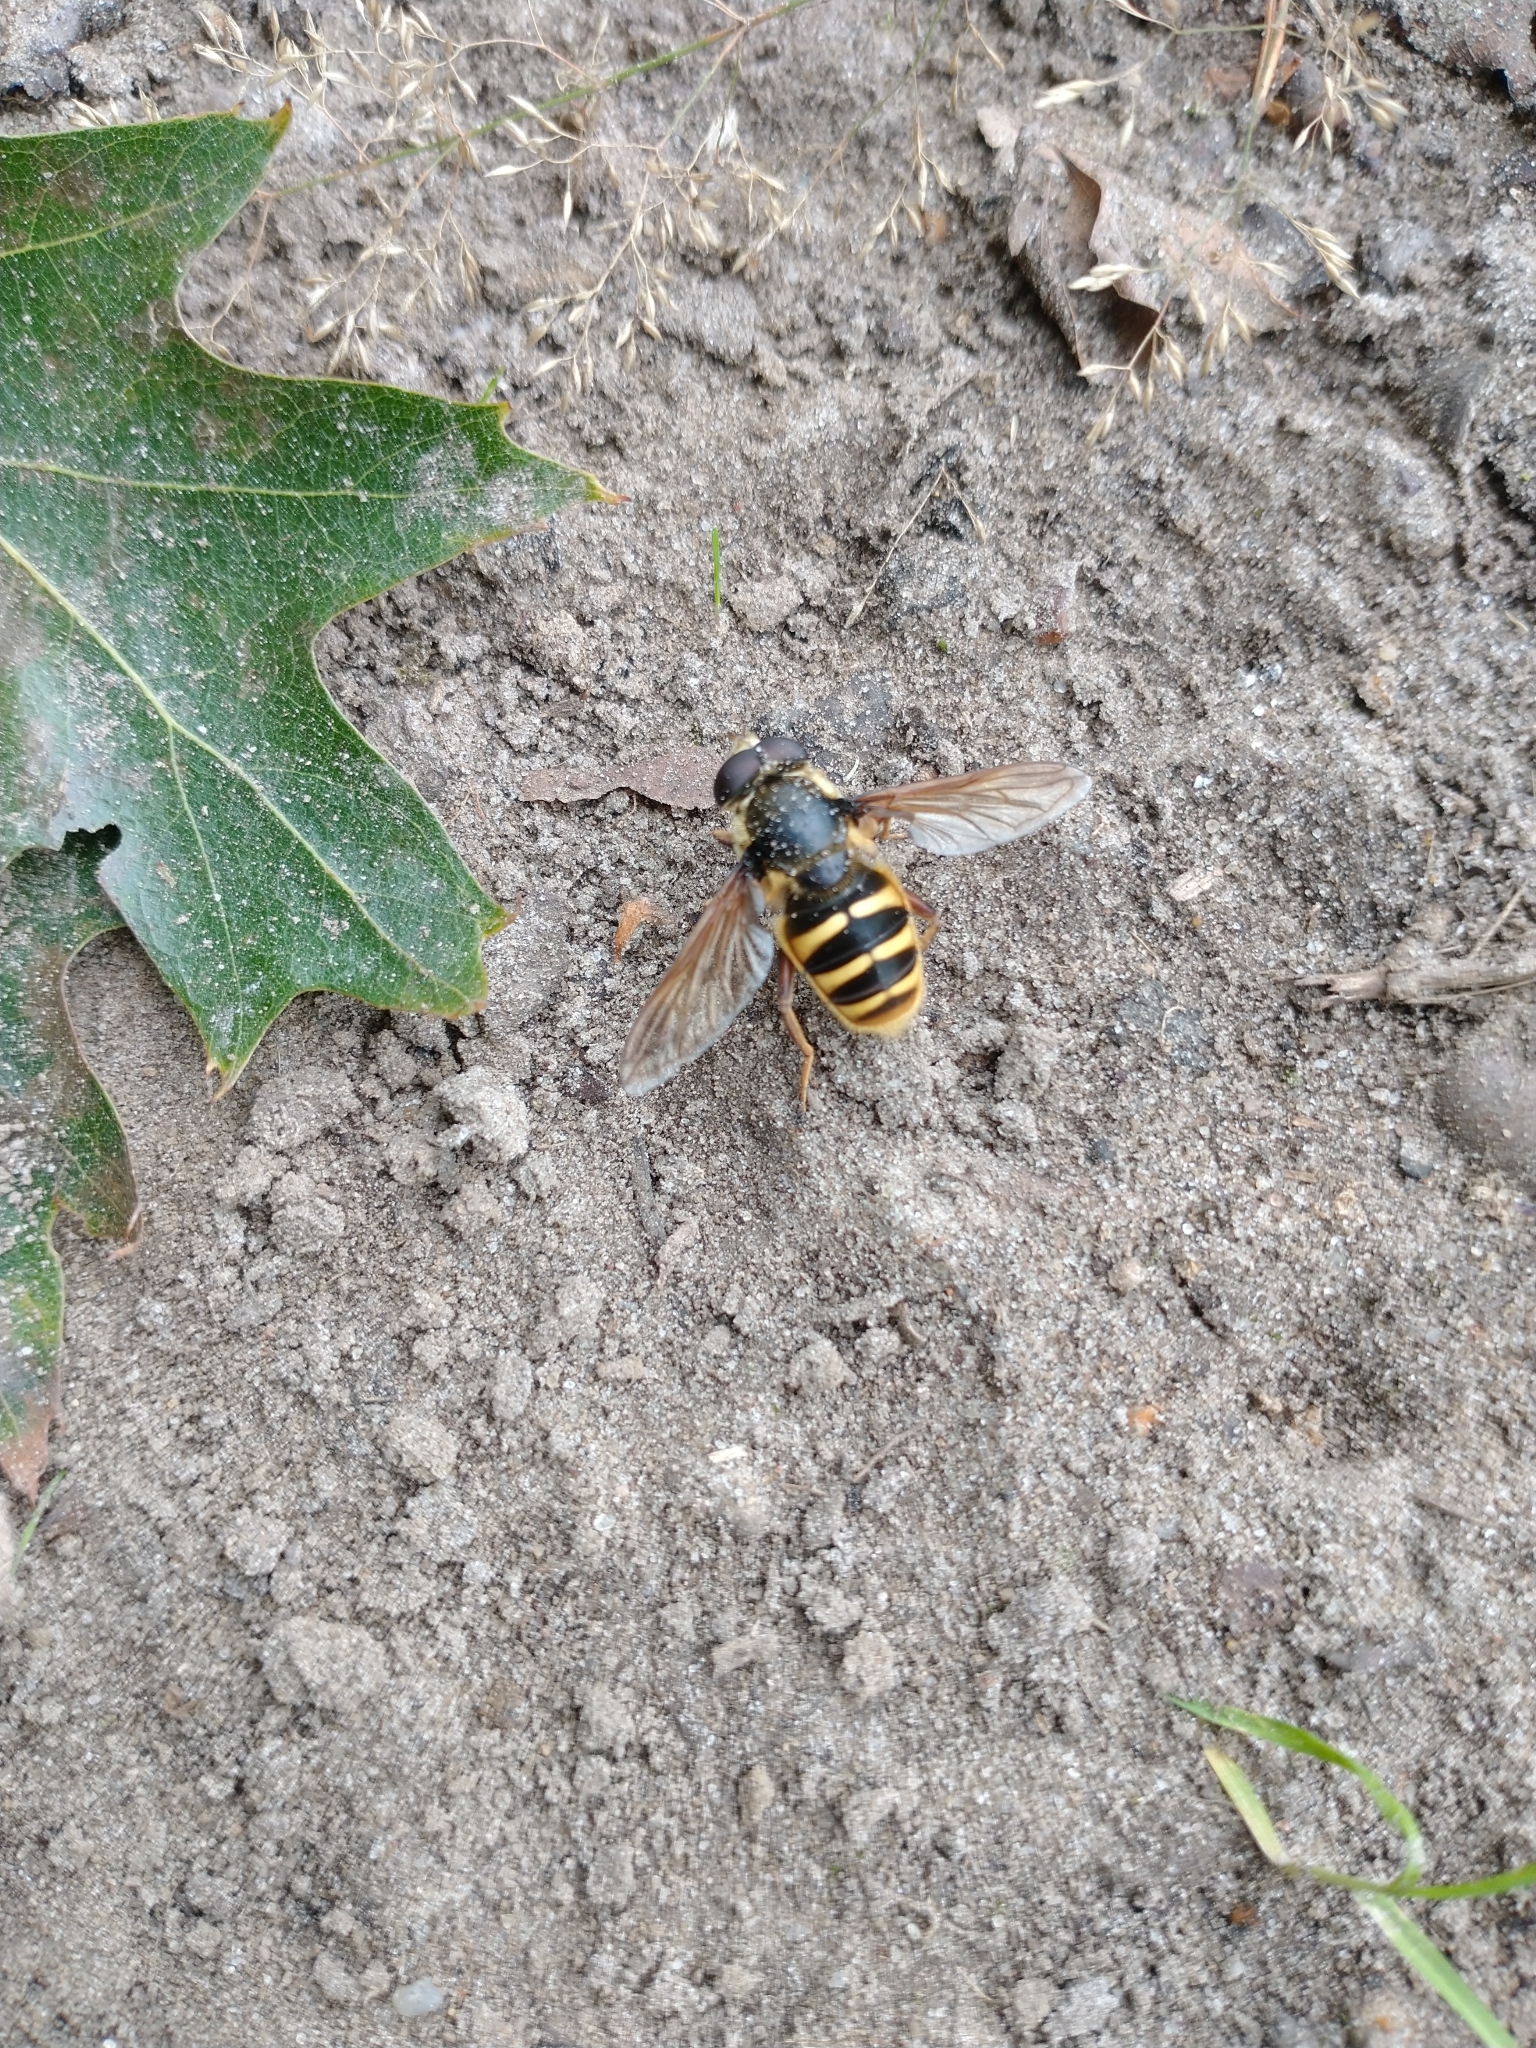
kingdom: Animalia
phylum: Arthropoda
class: Insecta
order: Diptera
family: Syrphidae
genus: Sericomyia
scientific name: Sericomyia silentis
